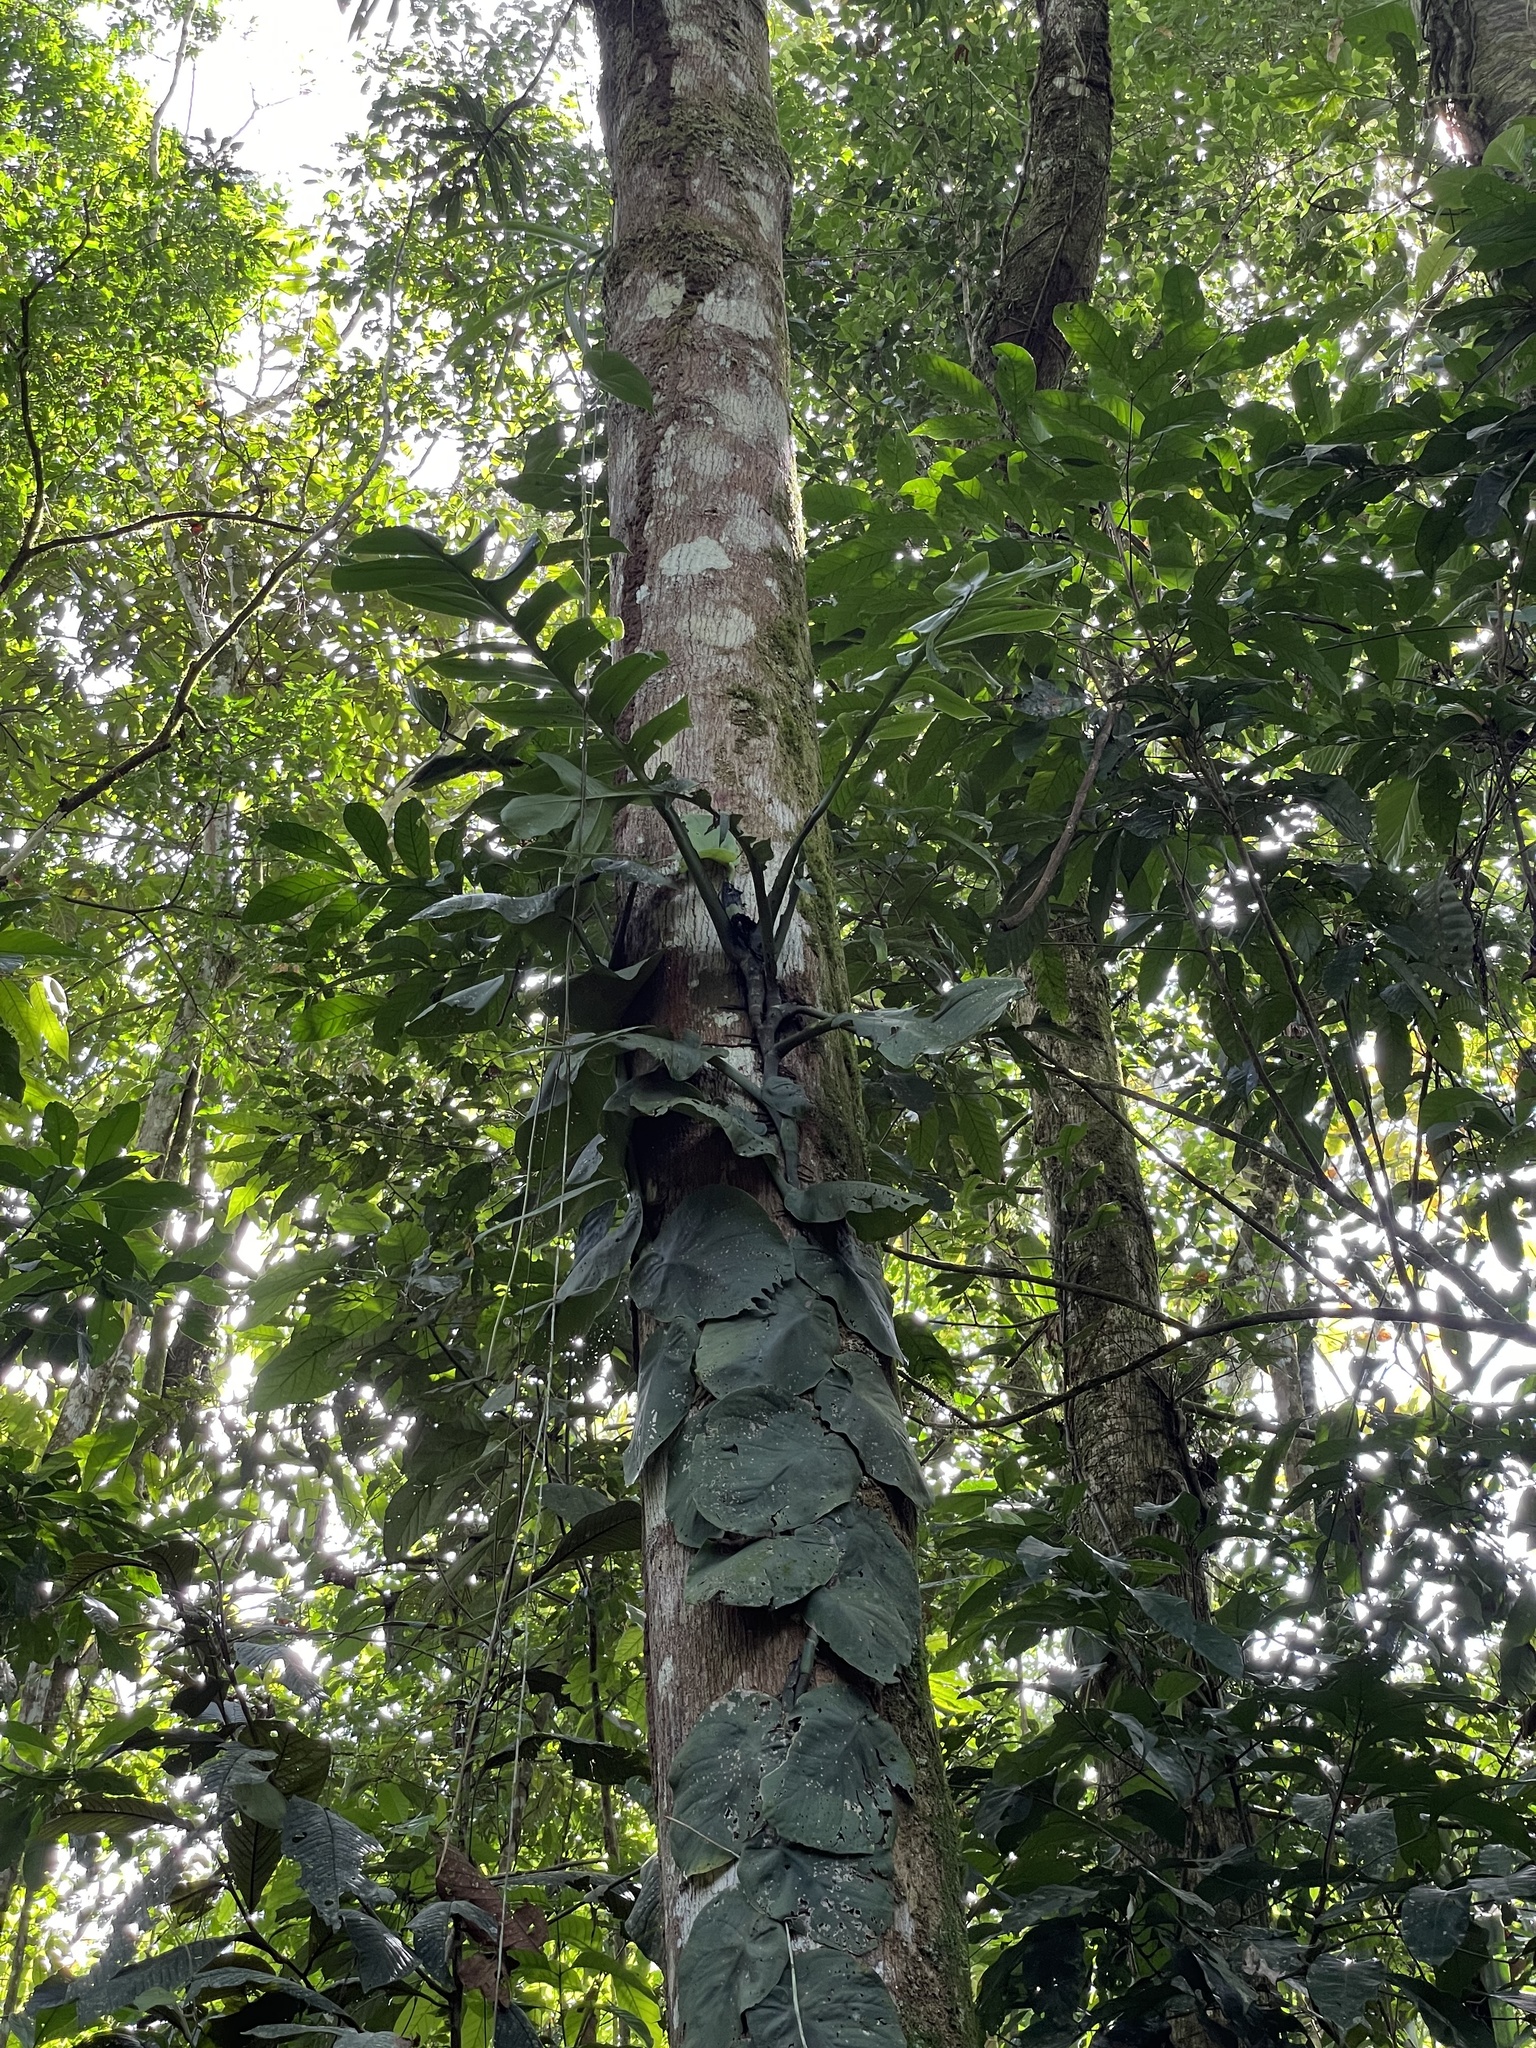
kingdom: Plantae
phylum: Tracheophyta
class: Liliopsida
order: Alismatales
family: Araceae
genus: Monstera
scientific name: Monstera tenuis
